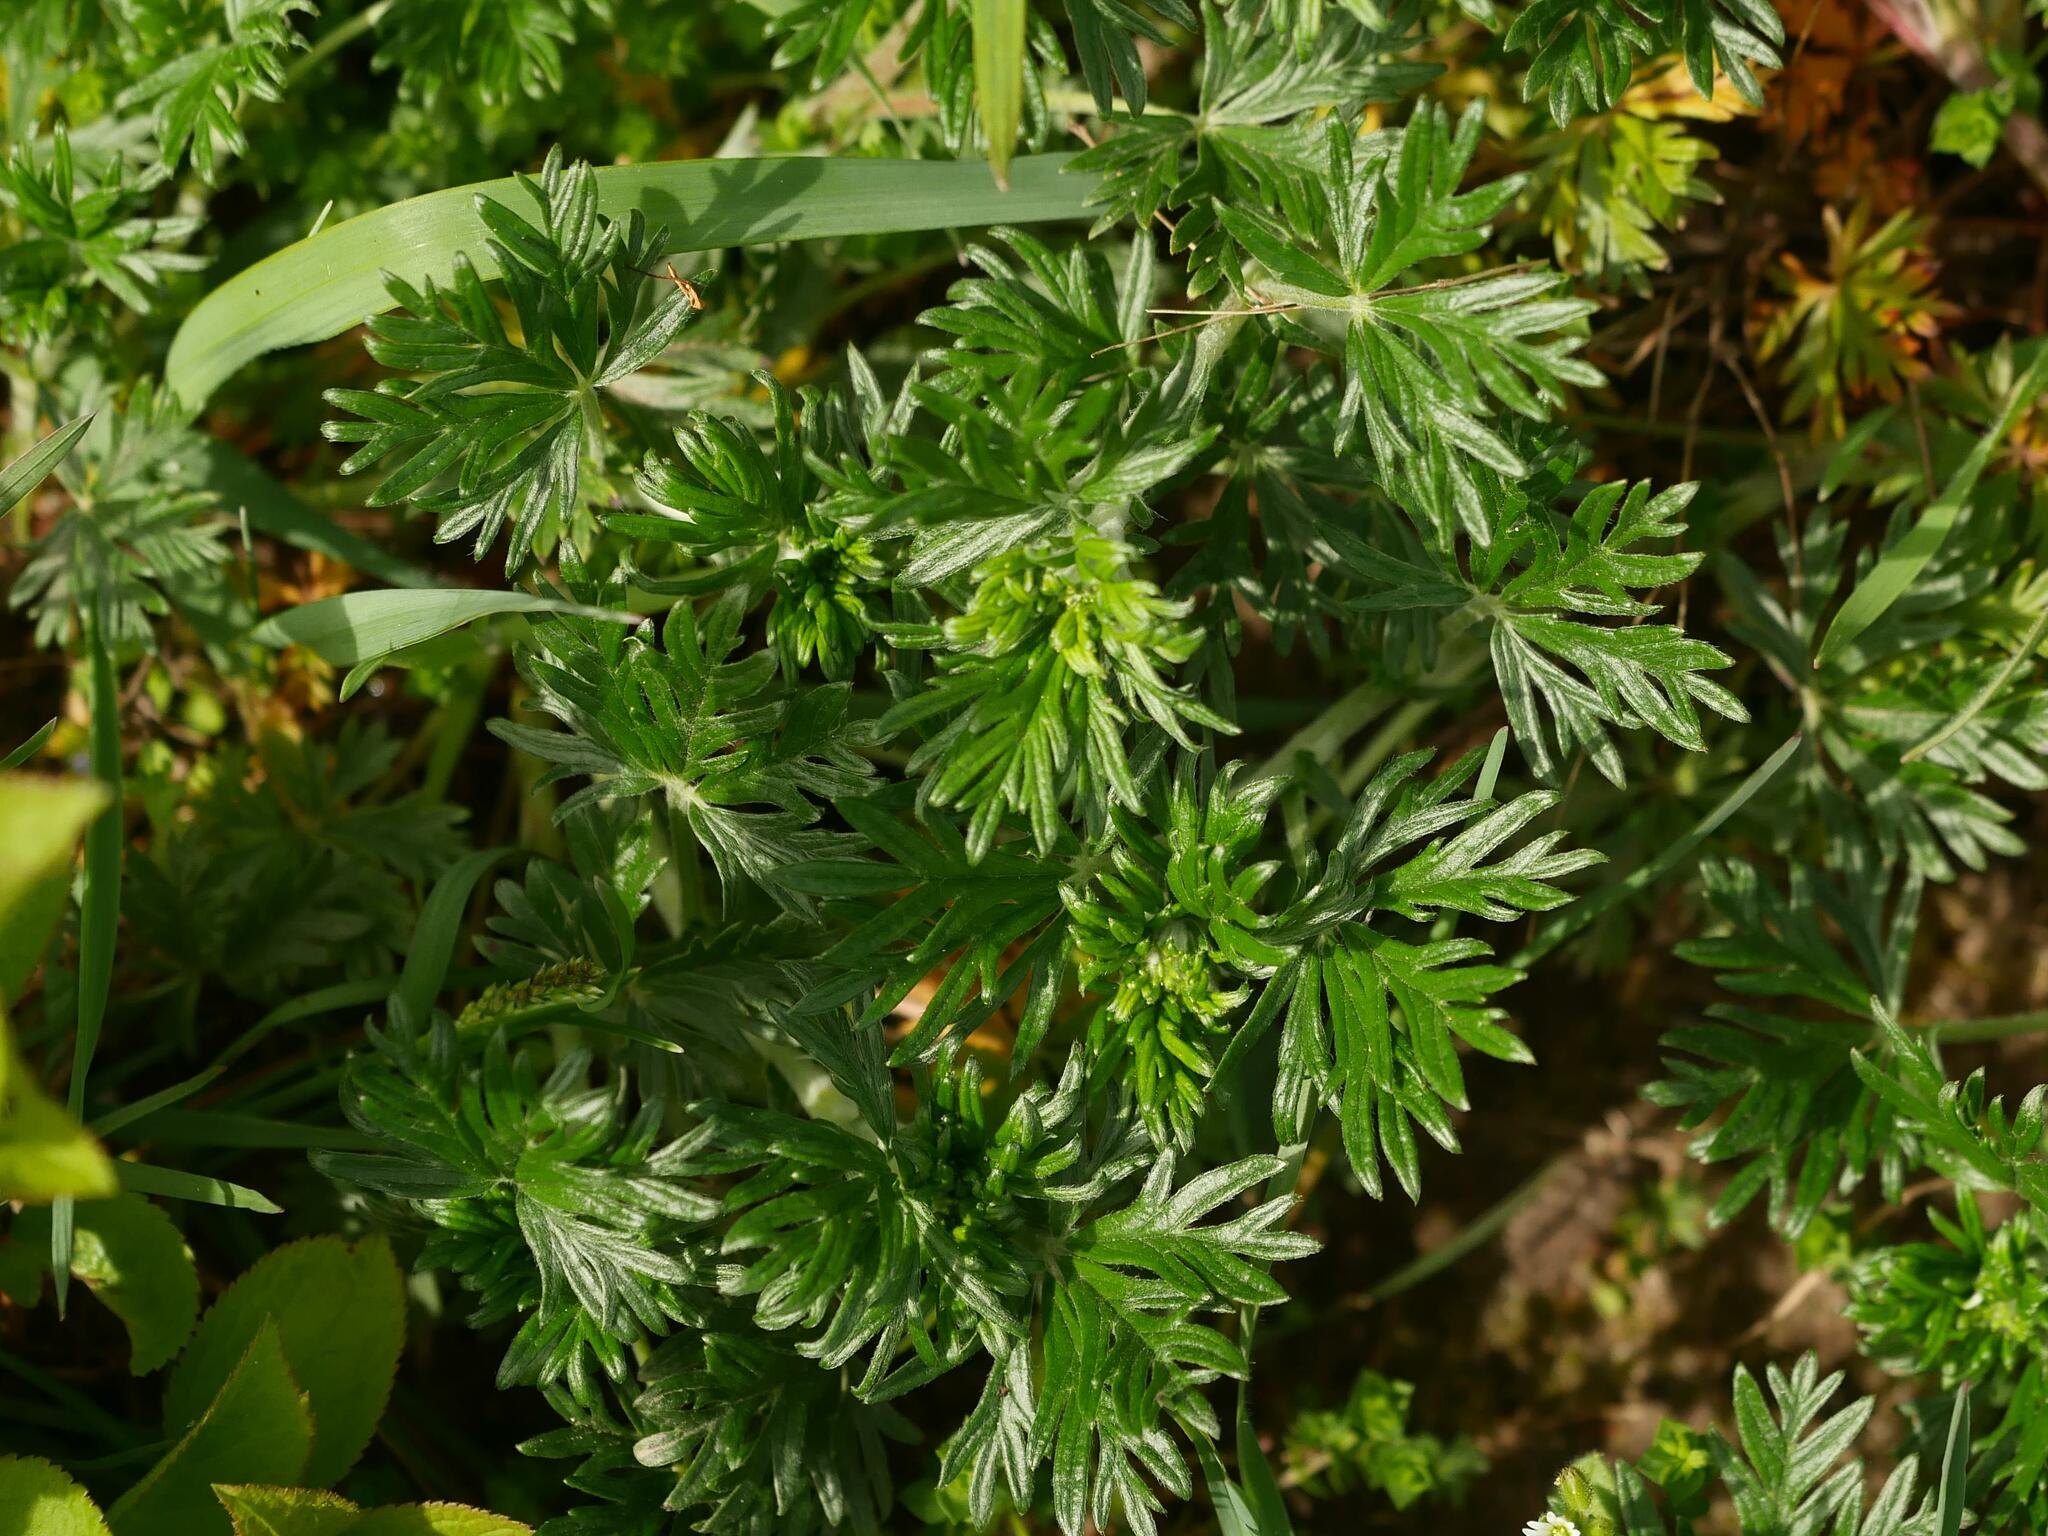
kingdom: Plantae
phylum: Tracheophyta
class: Magnoliopsida
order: Rosales
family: Rosaceae
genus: Potentilla
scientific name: Potentilla argentea
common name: Hoary cinquefoil
